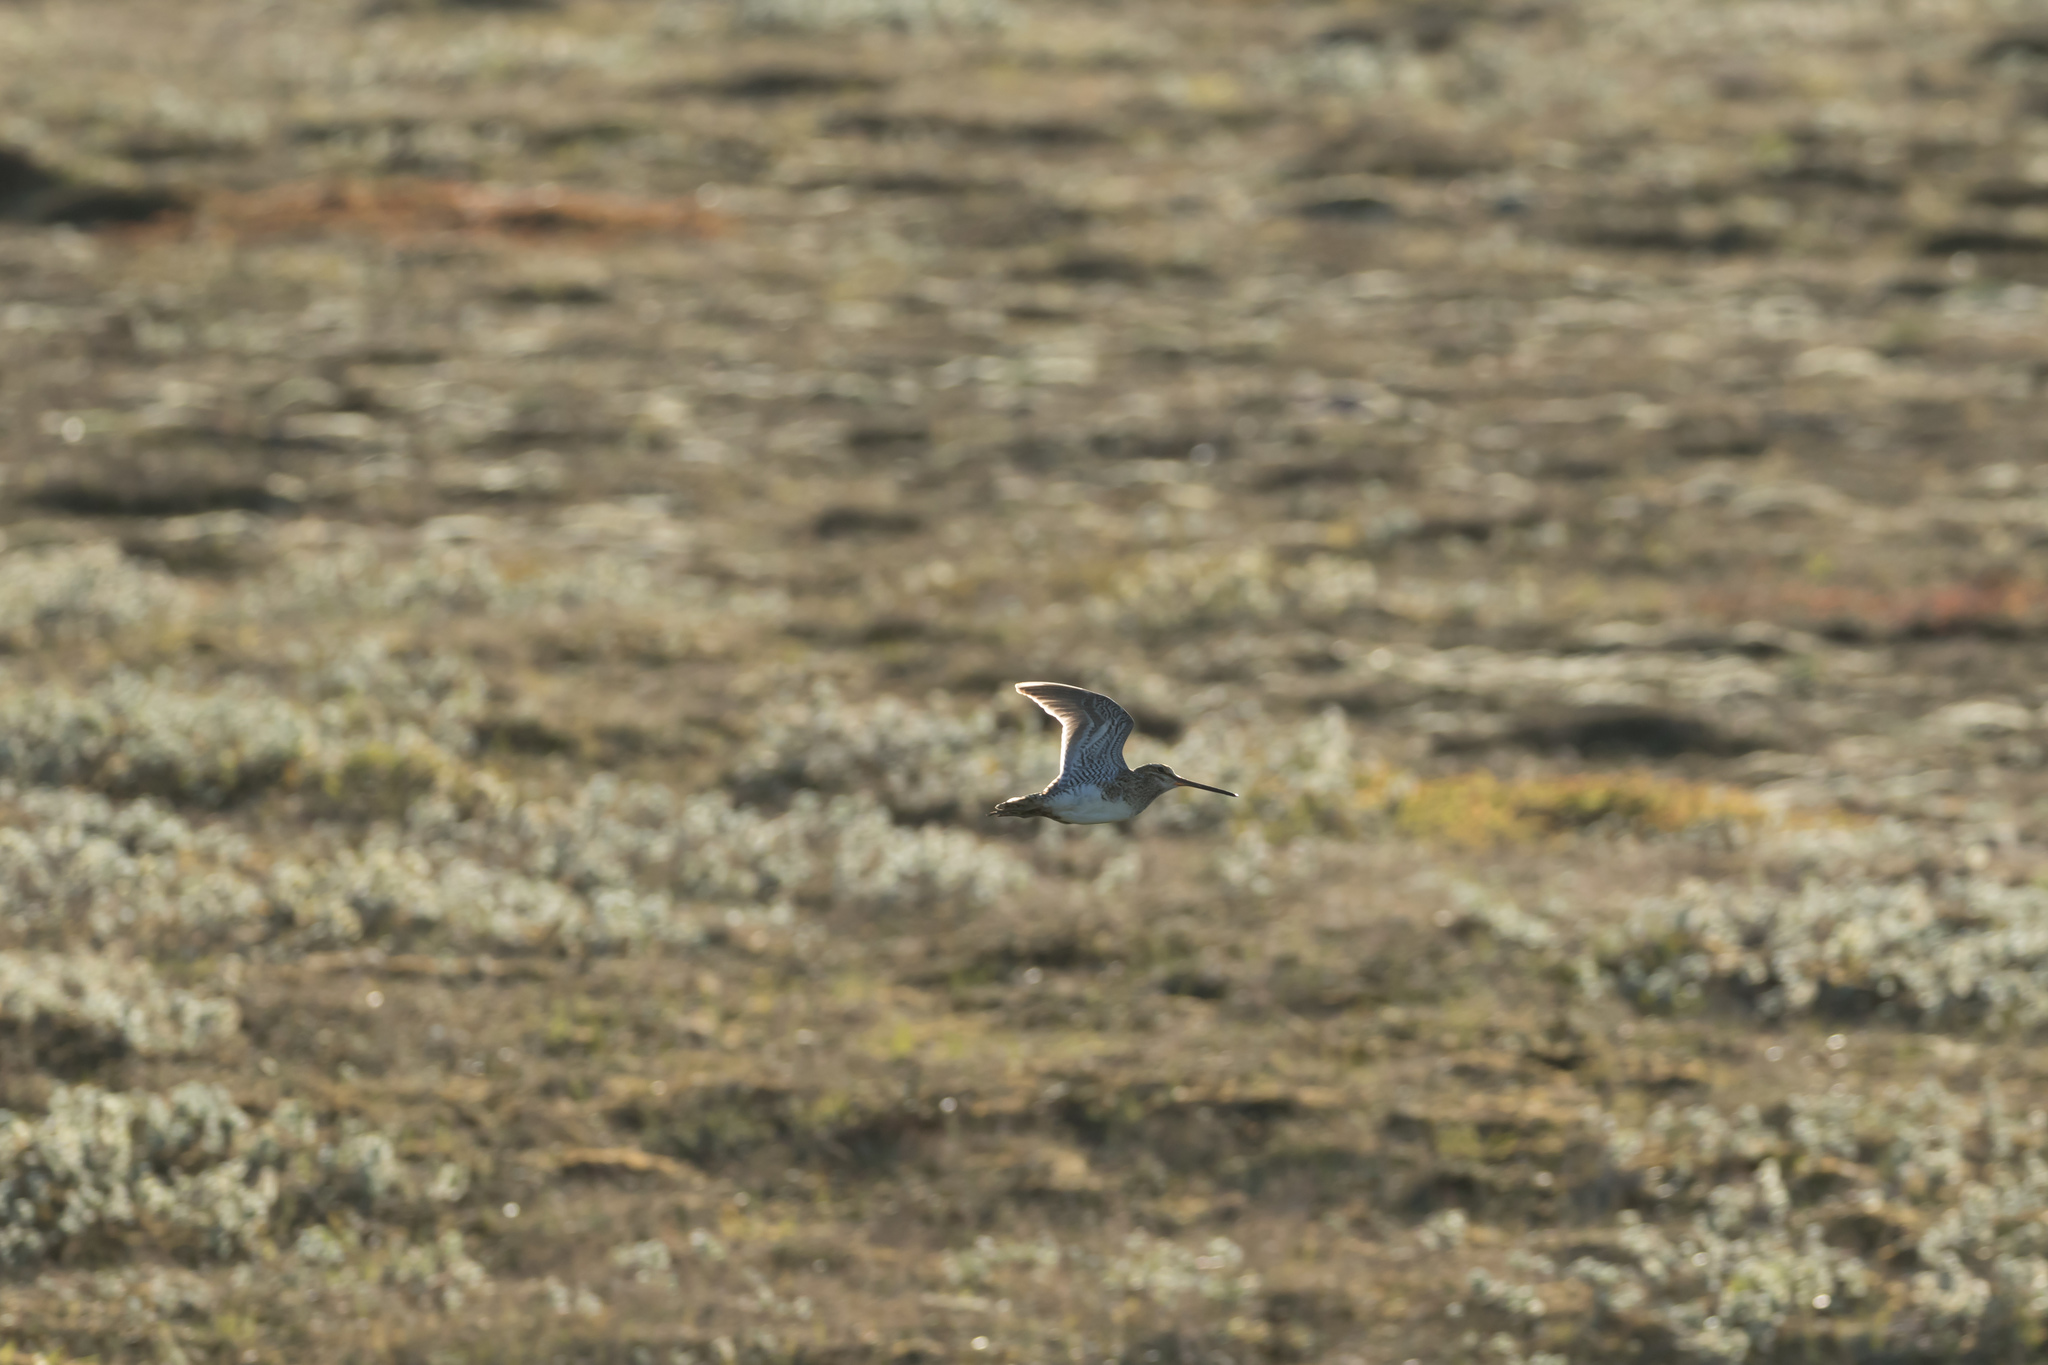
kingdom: Animalia
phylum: Chordata
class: Aves
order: Charadriiformes
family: Scolopacidae
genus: Gallinago
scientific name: Gallinago gallinago
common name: Common snipe
